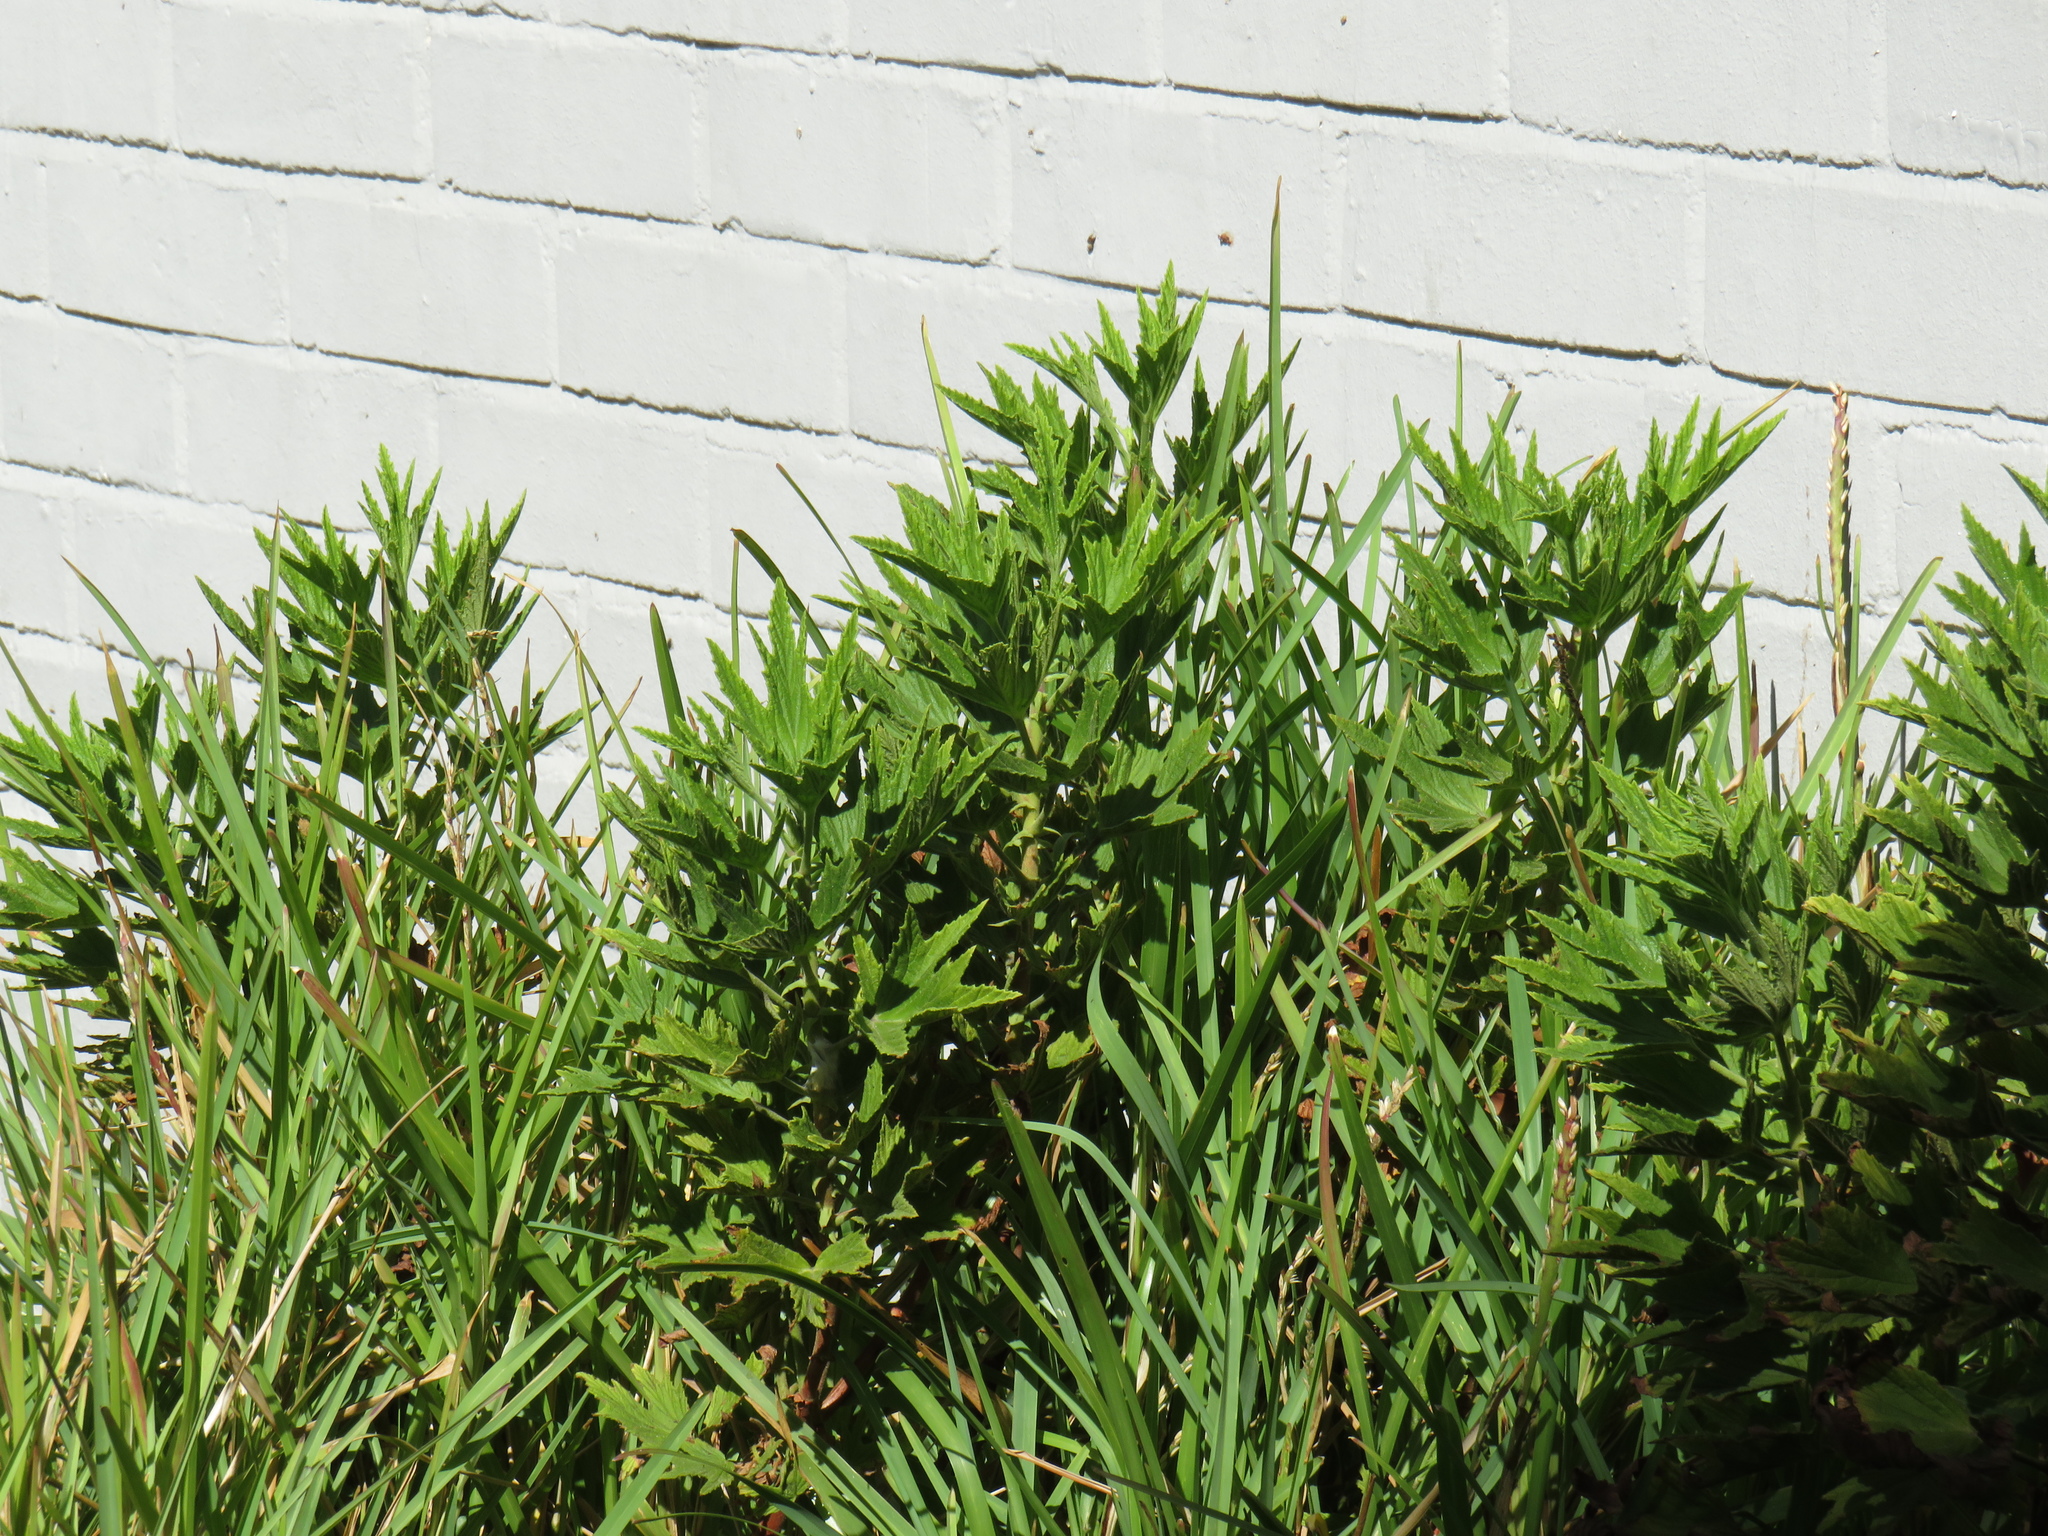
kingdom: Plantae
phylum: Tracheophyta
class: Magnoliopsida
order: Geraniales
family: Geraniaceae
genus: Pelargonium
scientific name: Pelargonium citronellum
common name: Lemon-scent pelargonium
